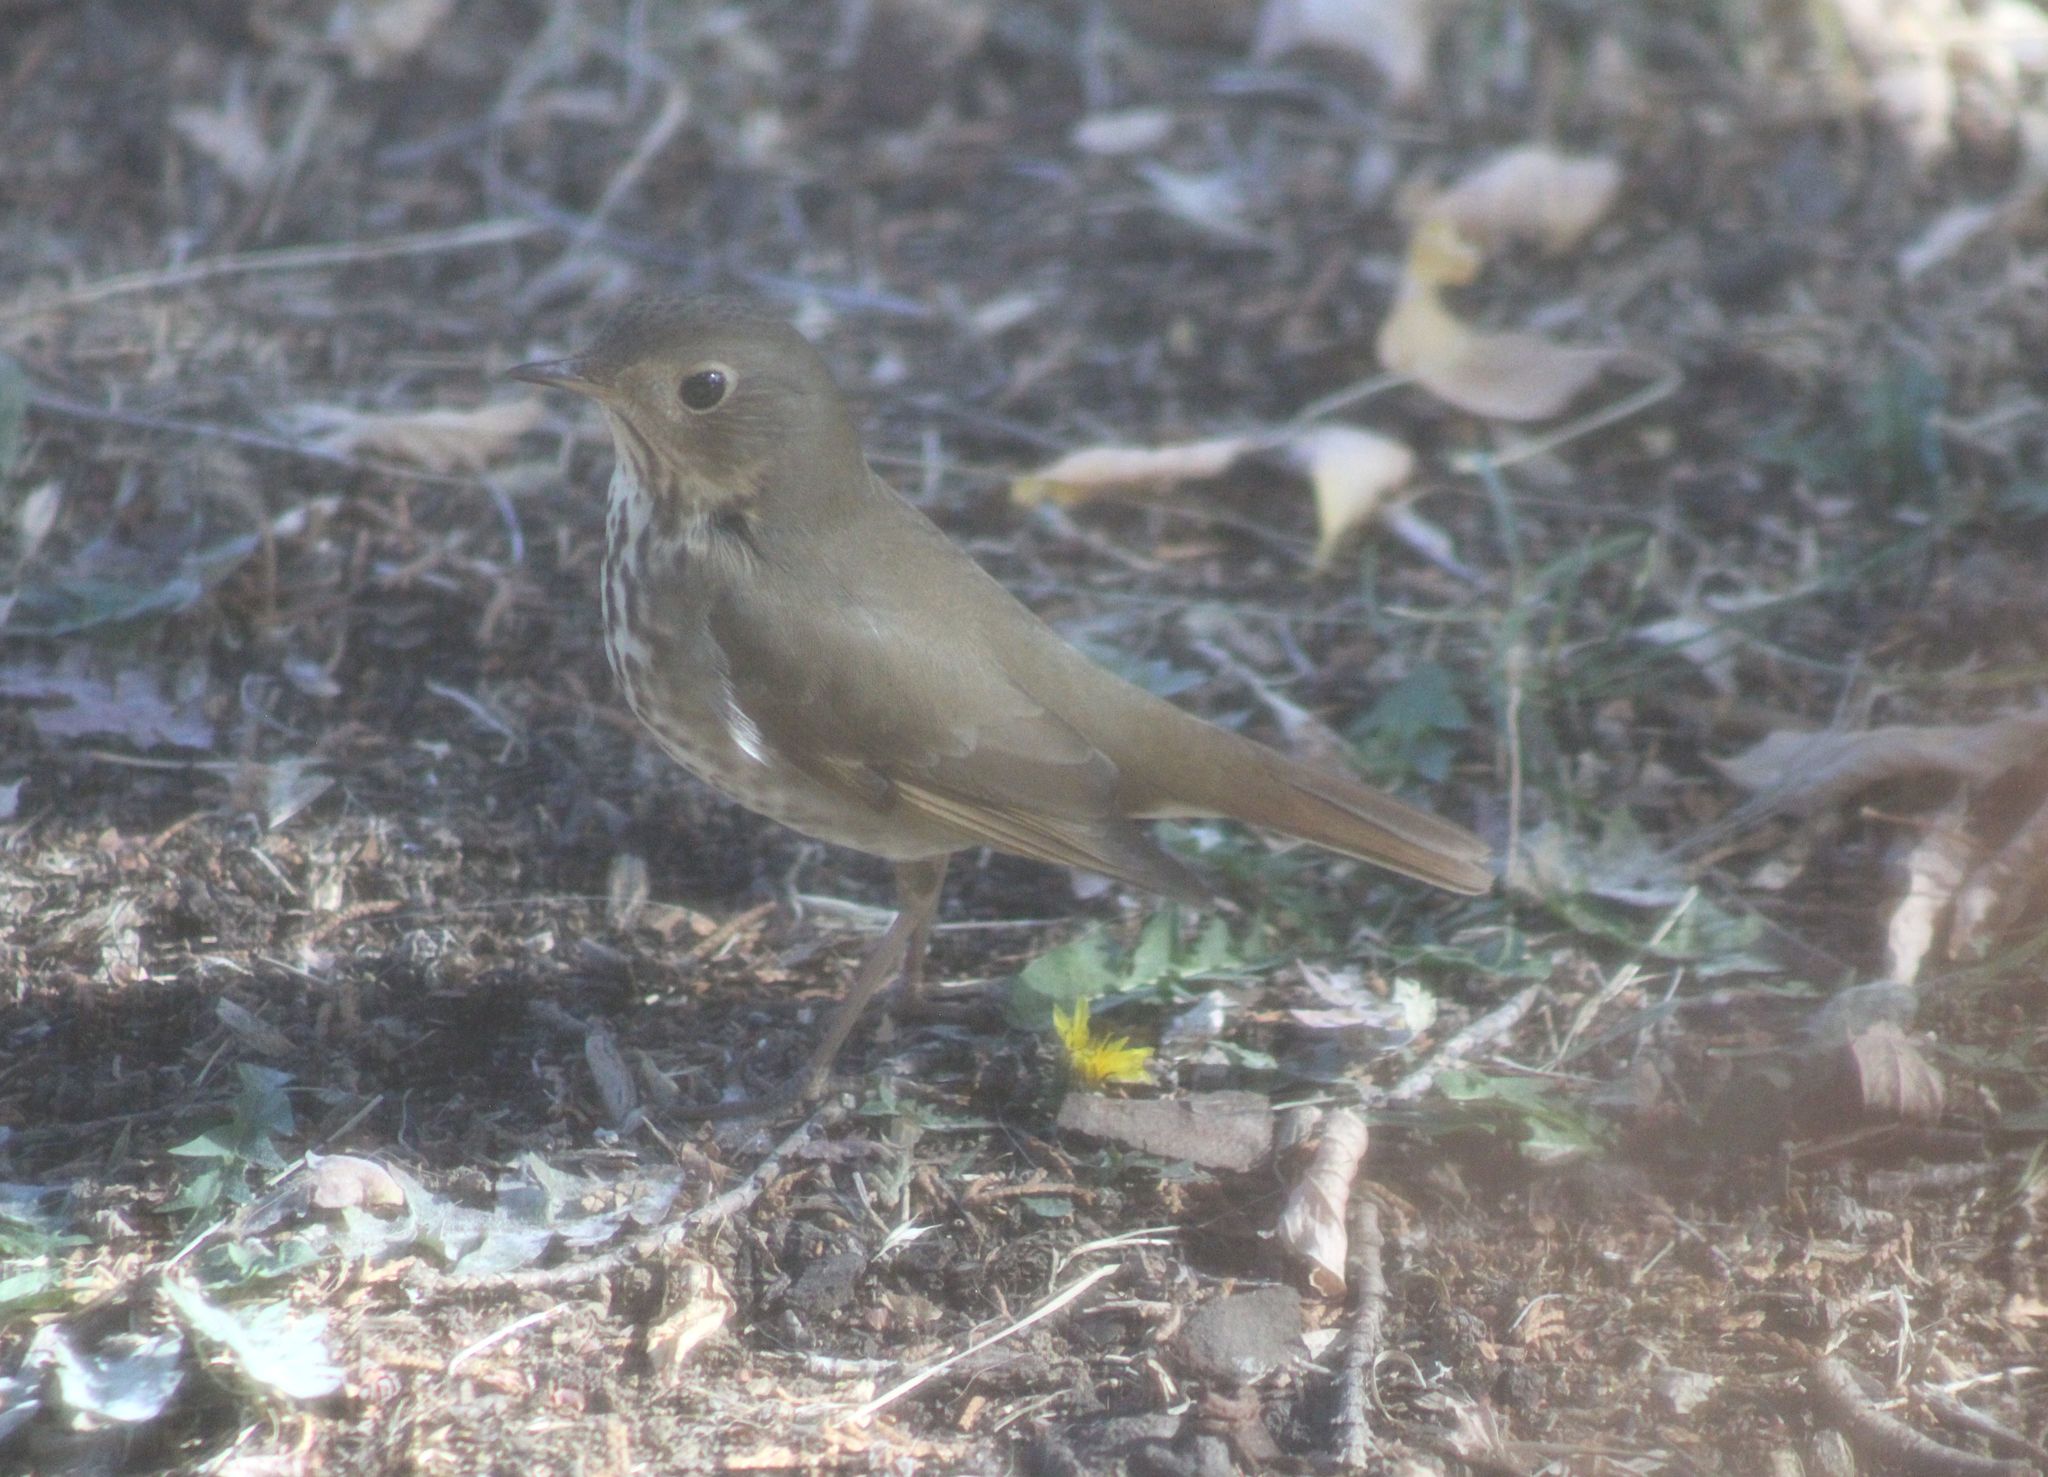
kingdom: Animalia
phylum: Chordata
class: Aves
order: Passeriformes
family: Turdidae
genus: Catharus
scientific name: Catharus guttatus
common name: Hermit thrush
